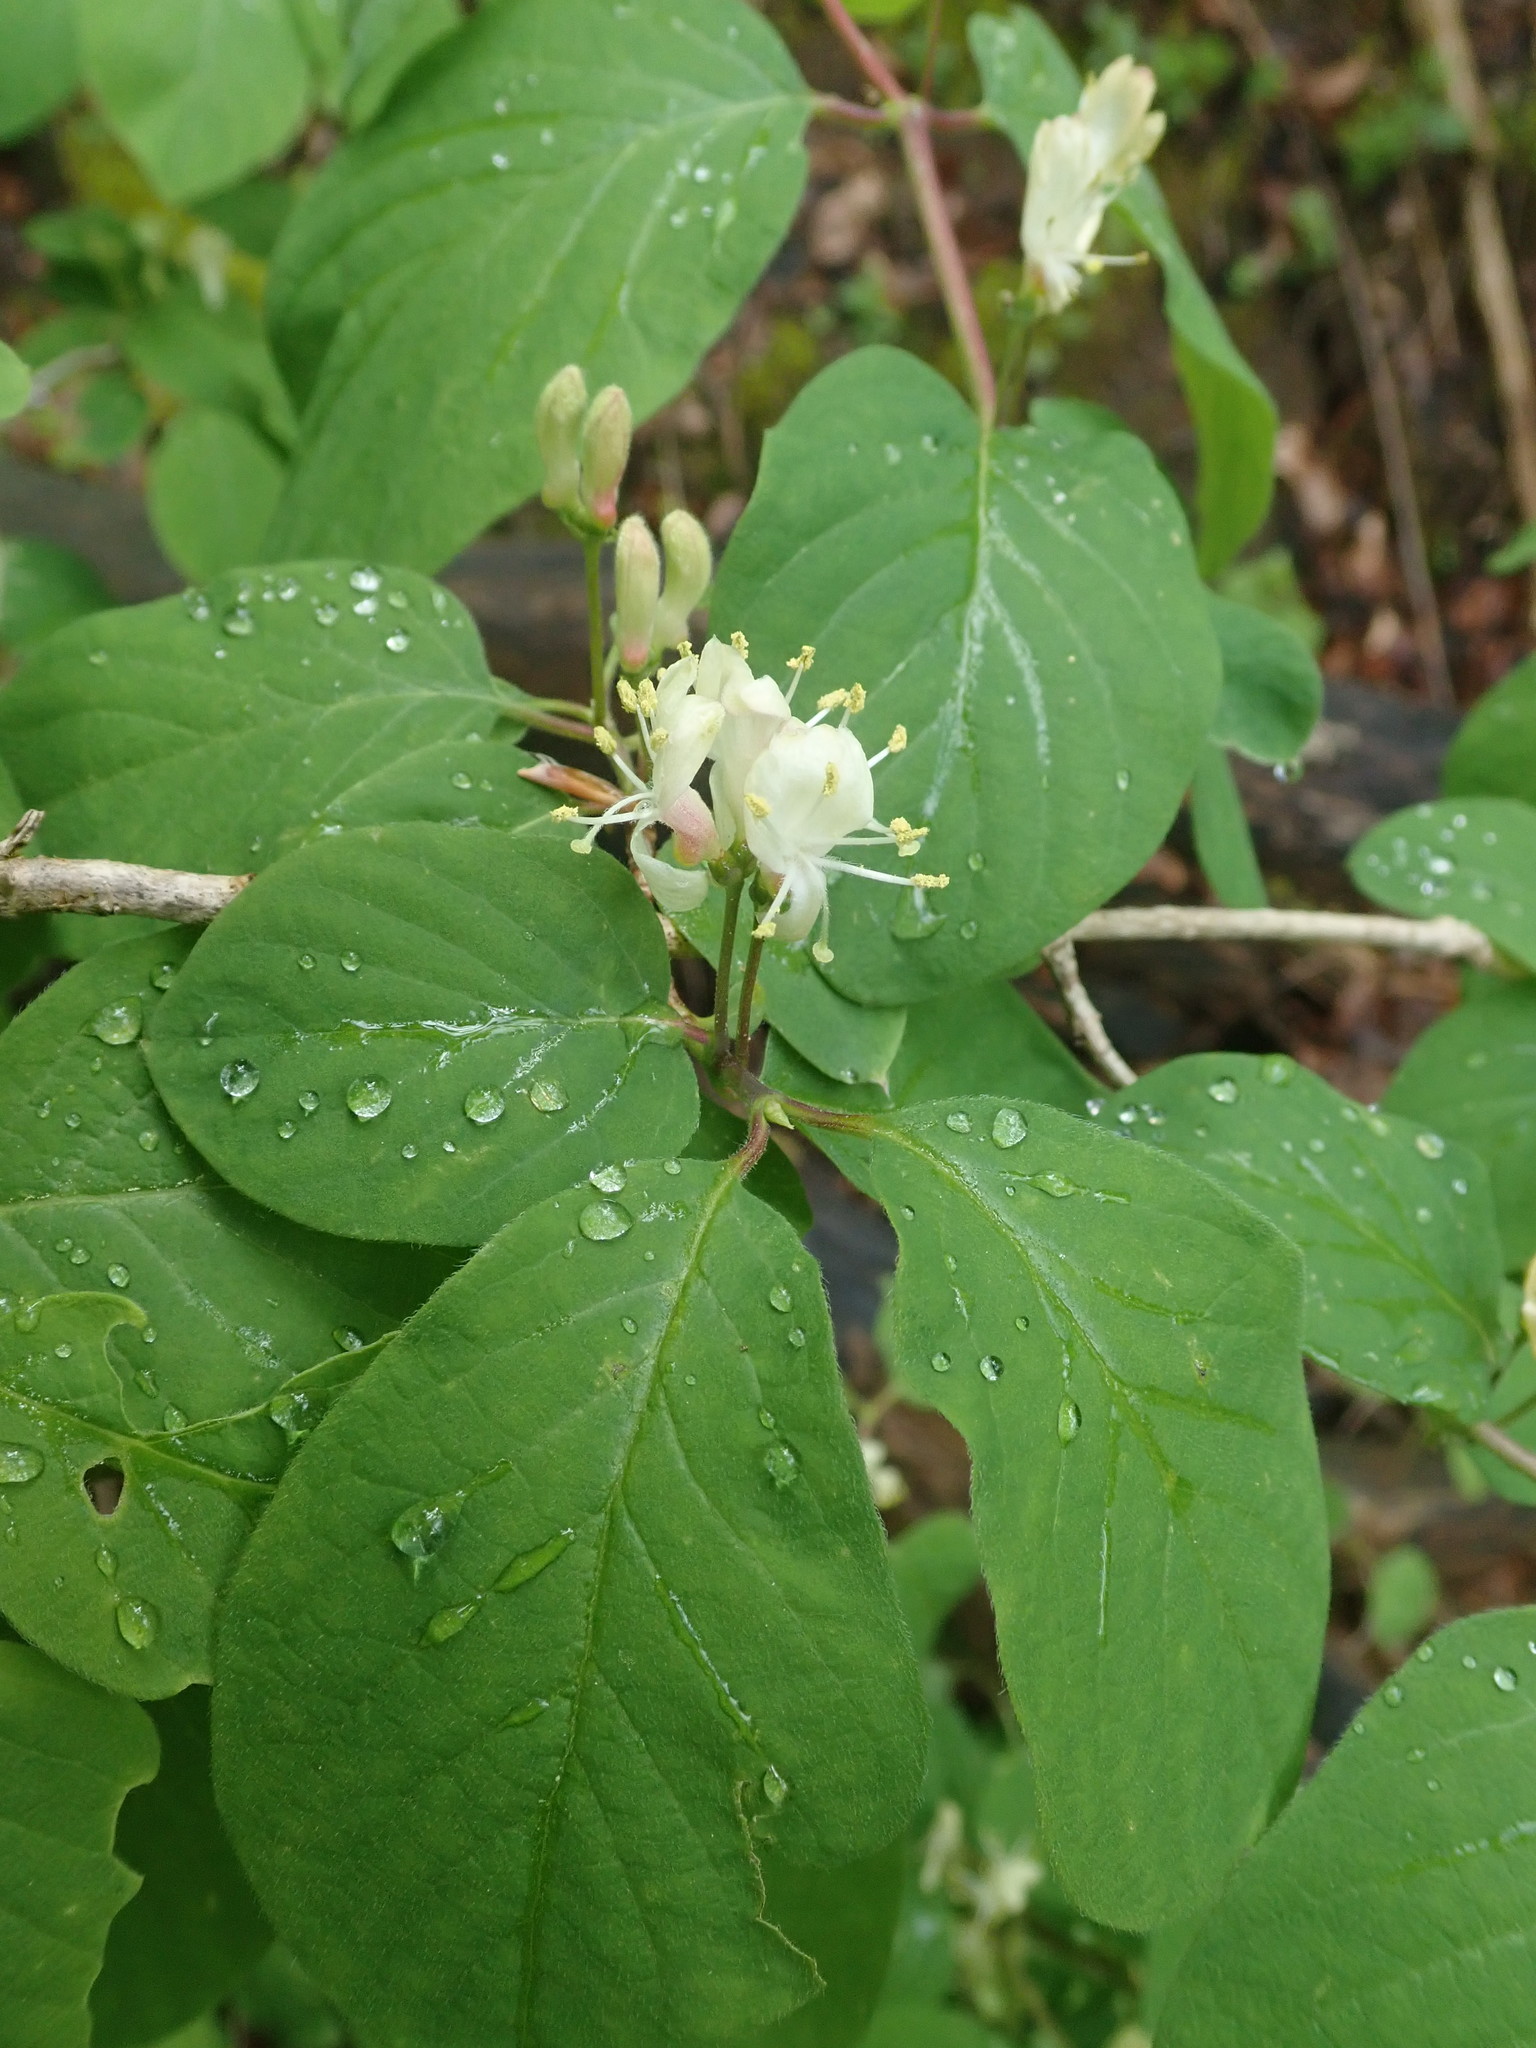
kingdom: Plantae
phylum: Tracheophyta
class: Magnoliopsida
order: Dipsacales
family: Caprifoliaceae
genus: Lonicera
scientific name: Lonicera xylosteum
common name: Fly honeysuckle
